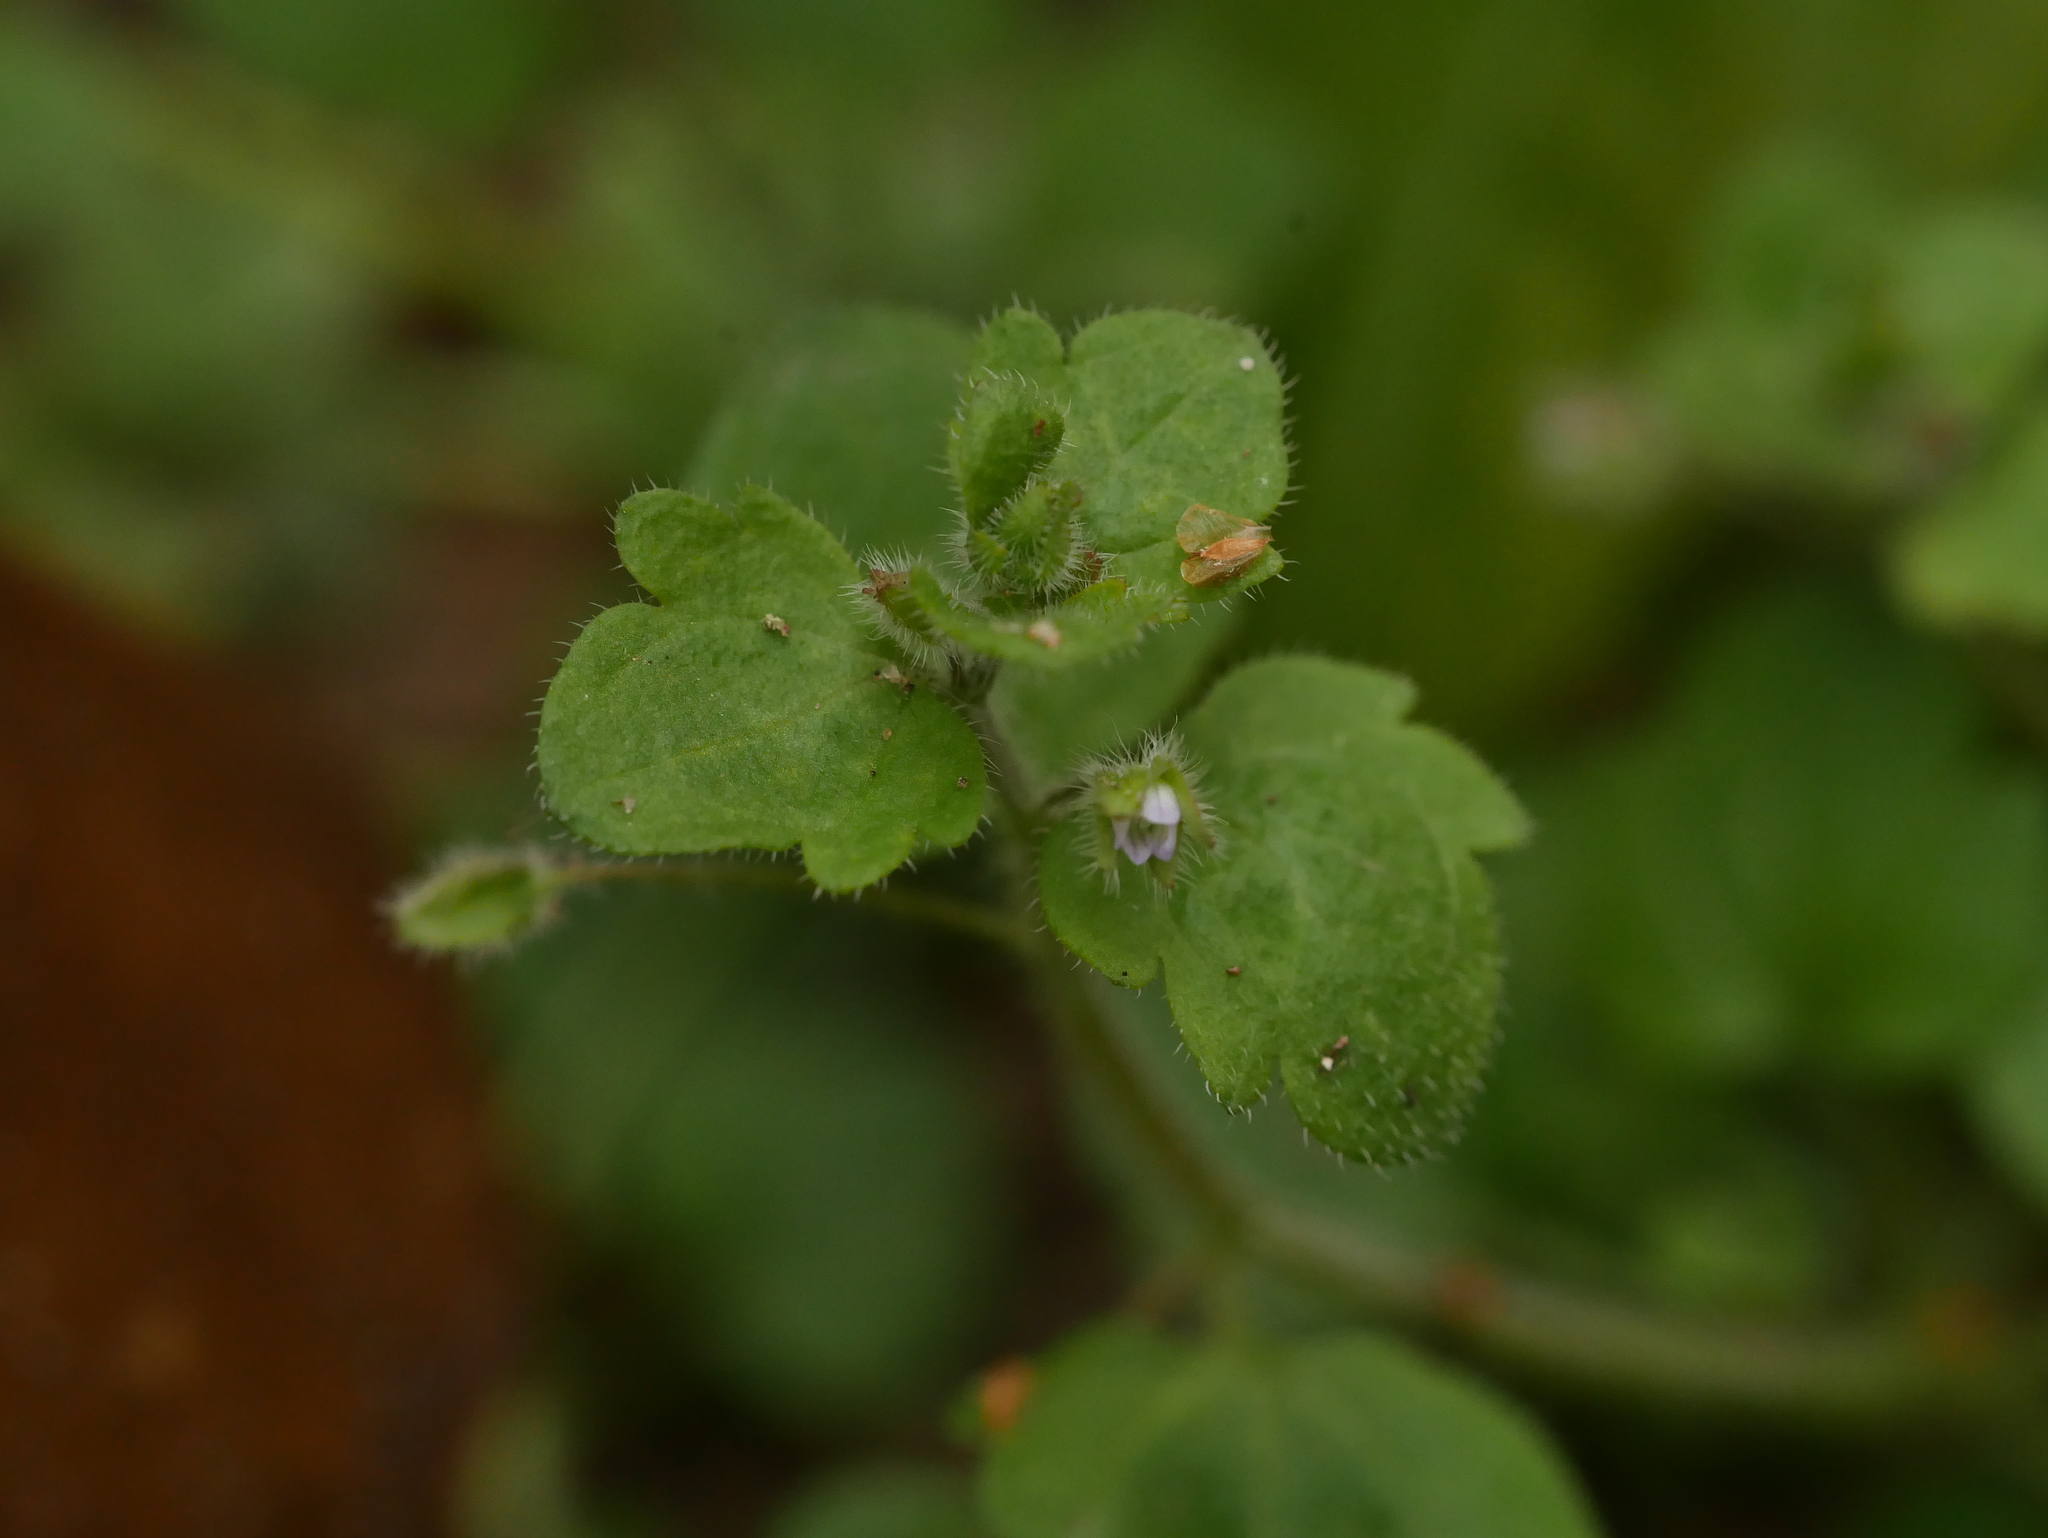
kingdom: Plantae
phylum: Tracheophyta
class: Magnoliopsida
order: Lamiales
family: Plantaginaceae
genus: Veronica
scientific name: Veronica sublobata
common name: False ivy-leaved speedwell
